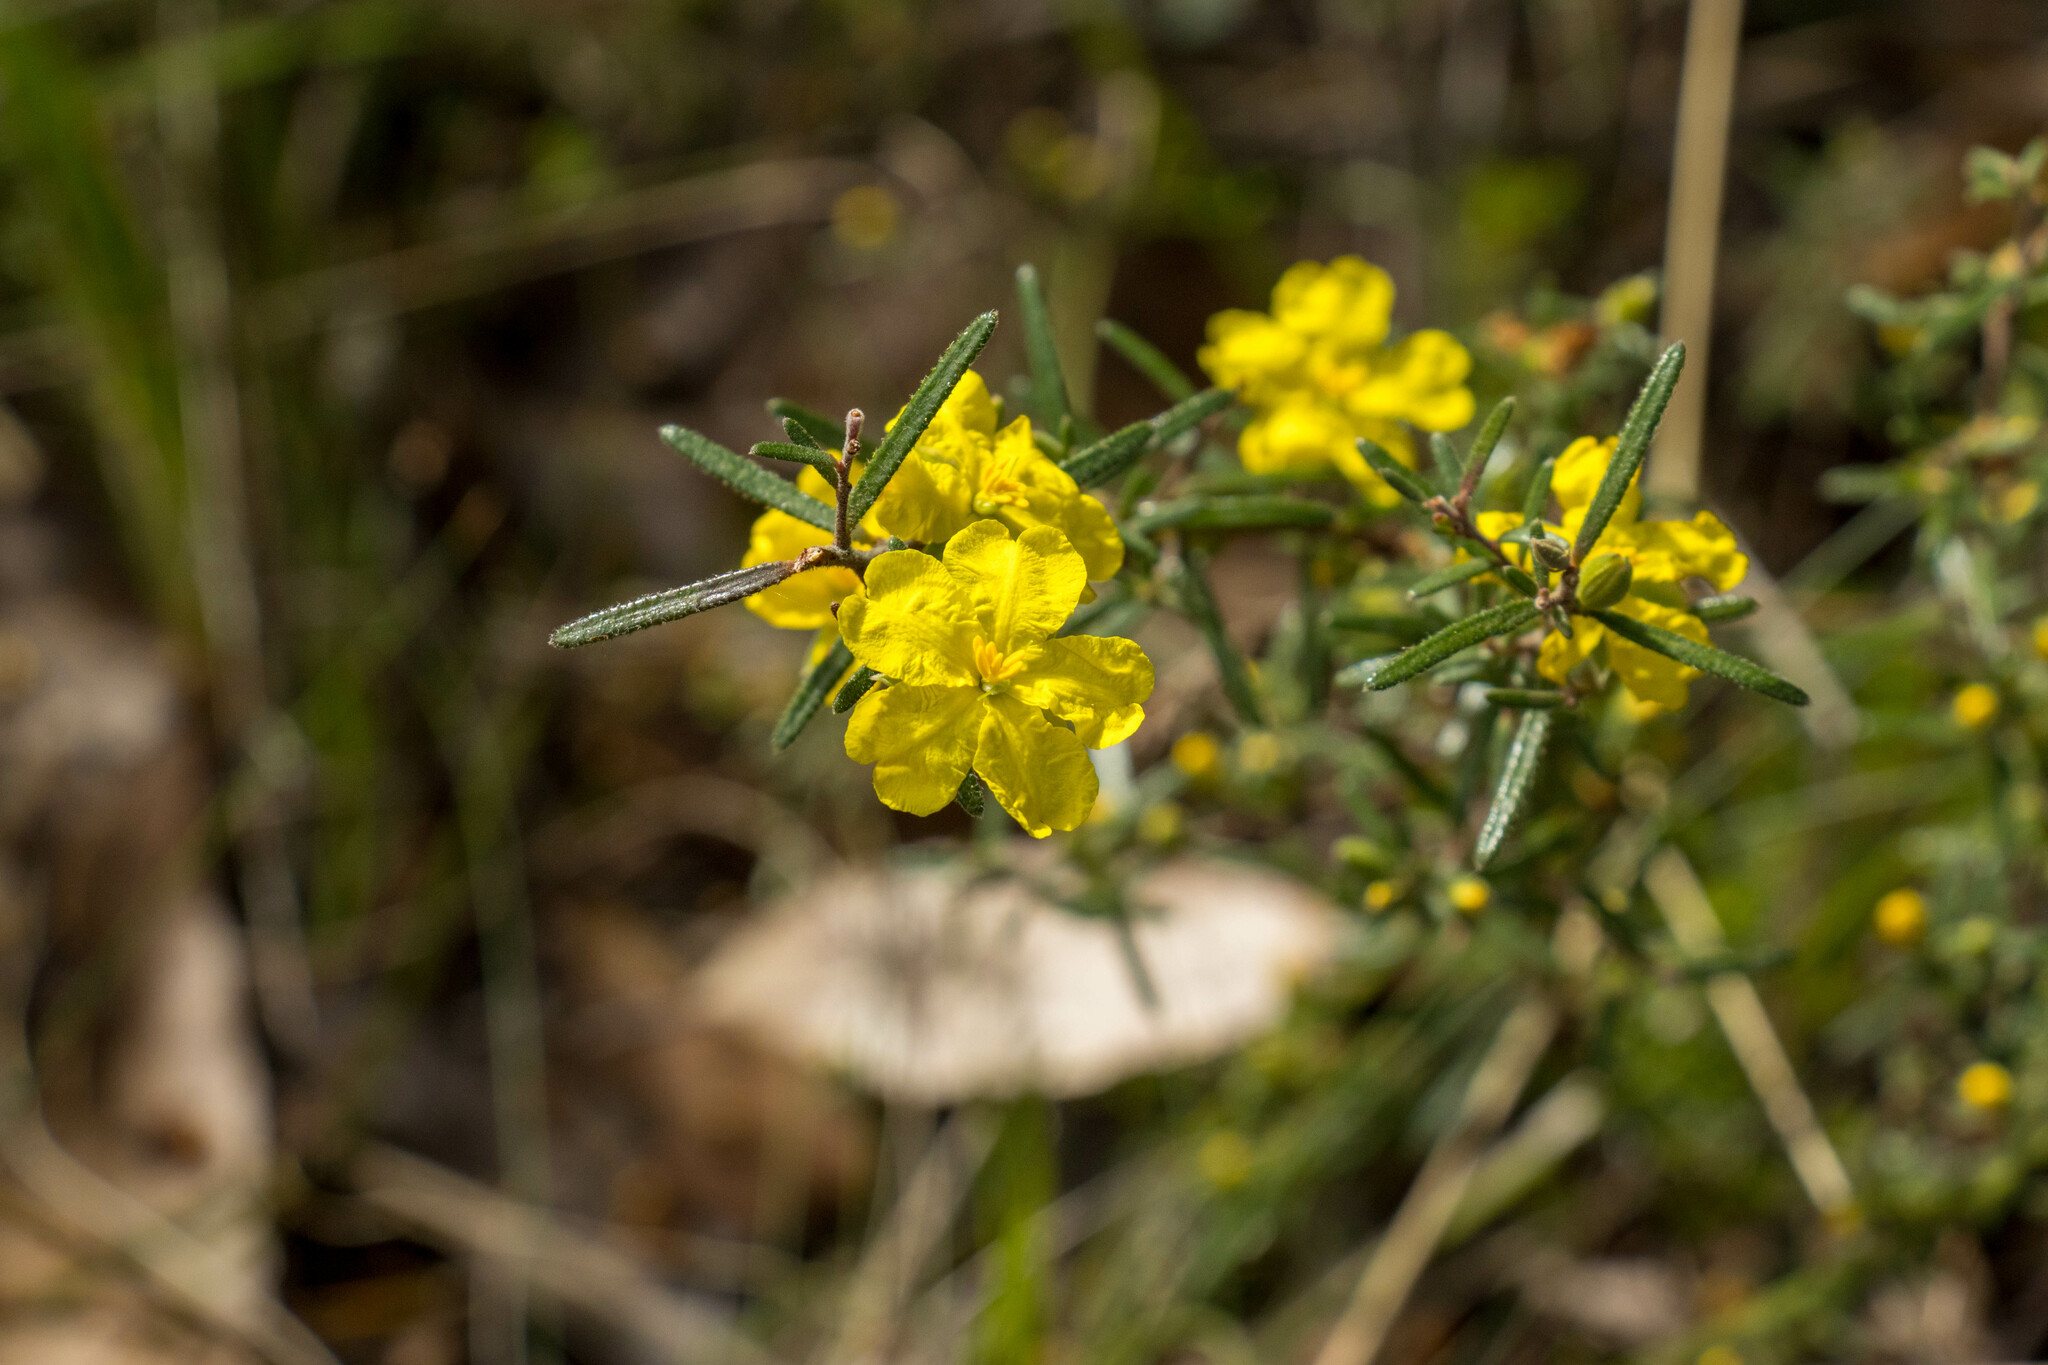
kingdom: Plantae
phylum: Tracheophyta
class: Magnoliopsida
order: Dilleniales
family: Dilleniaceae
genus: Hibbertia
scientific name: Hibbertia riparia
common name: Erect guinea-flower
